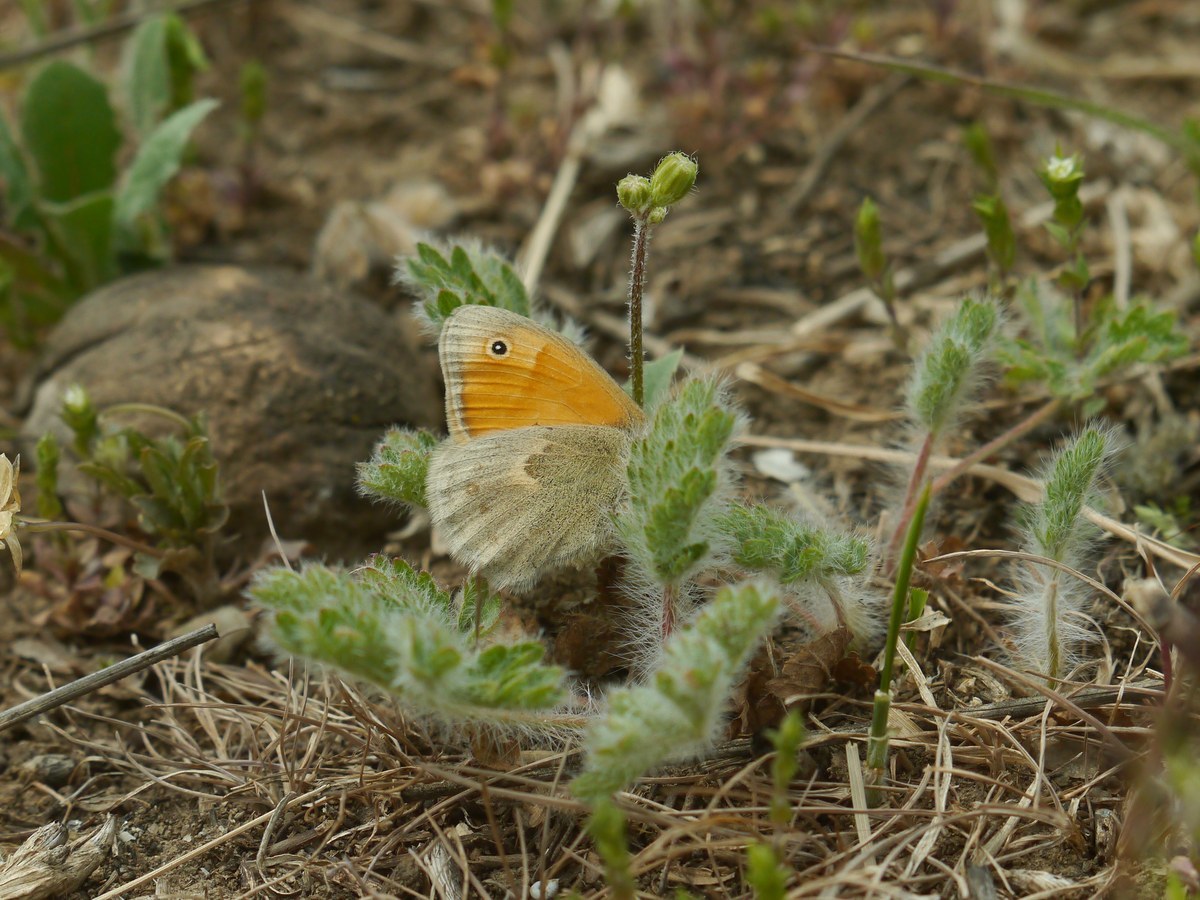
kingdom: Animalia
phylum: Arthropoda
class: Insecta
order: Lepidoptera
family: Nymphalidae
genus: Coenonympha
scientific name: Coenonympha pamphilus
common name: Small heath
